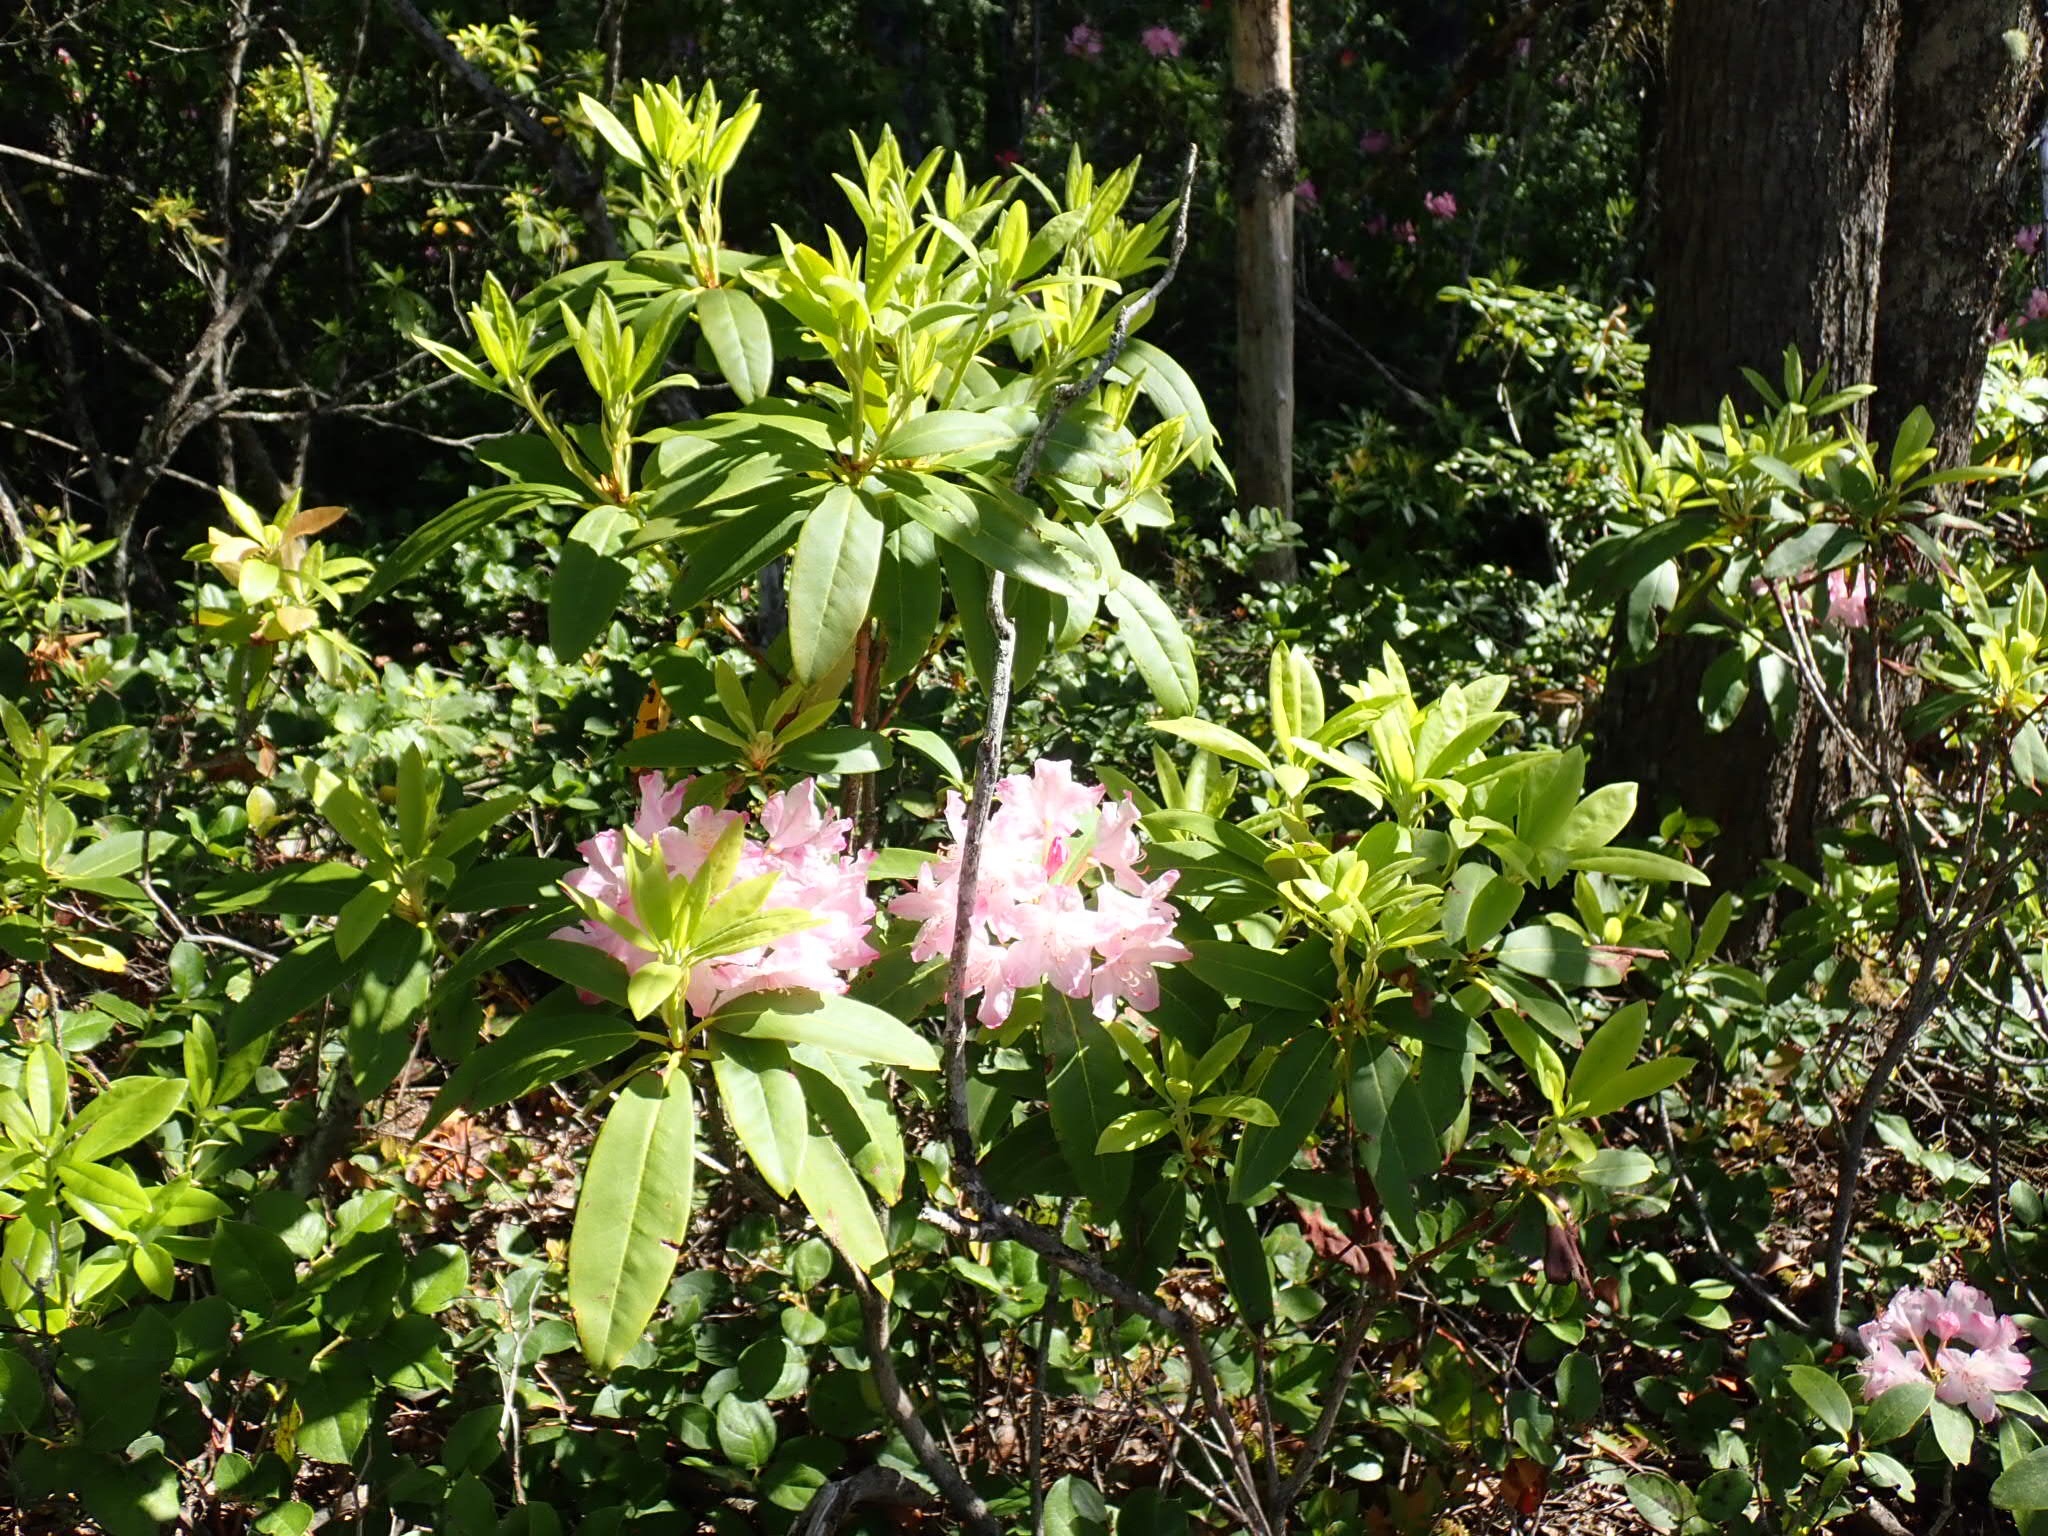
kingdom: Plantae
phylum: Tracheophyta
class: Magnoliopsida
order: Ericales
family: Ericaceae
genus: Rhododendron
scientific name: Rhododendron macrophyllum
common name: California rose bay
